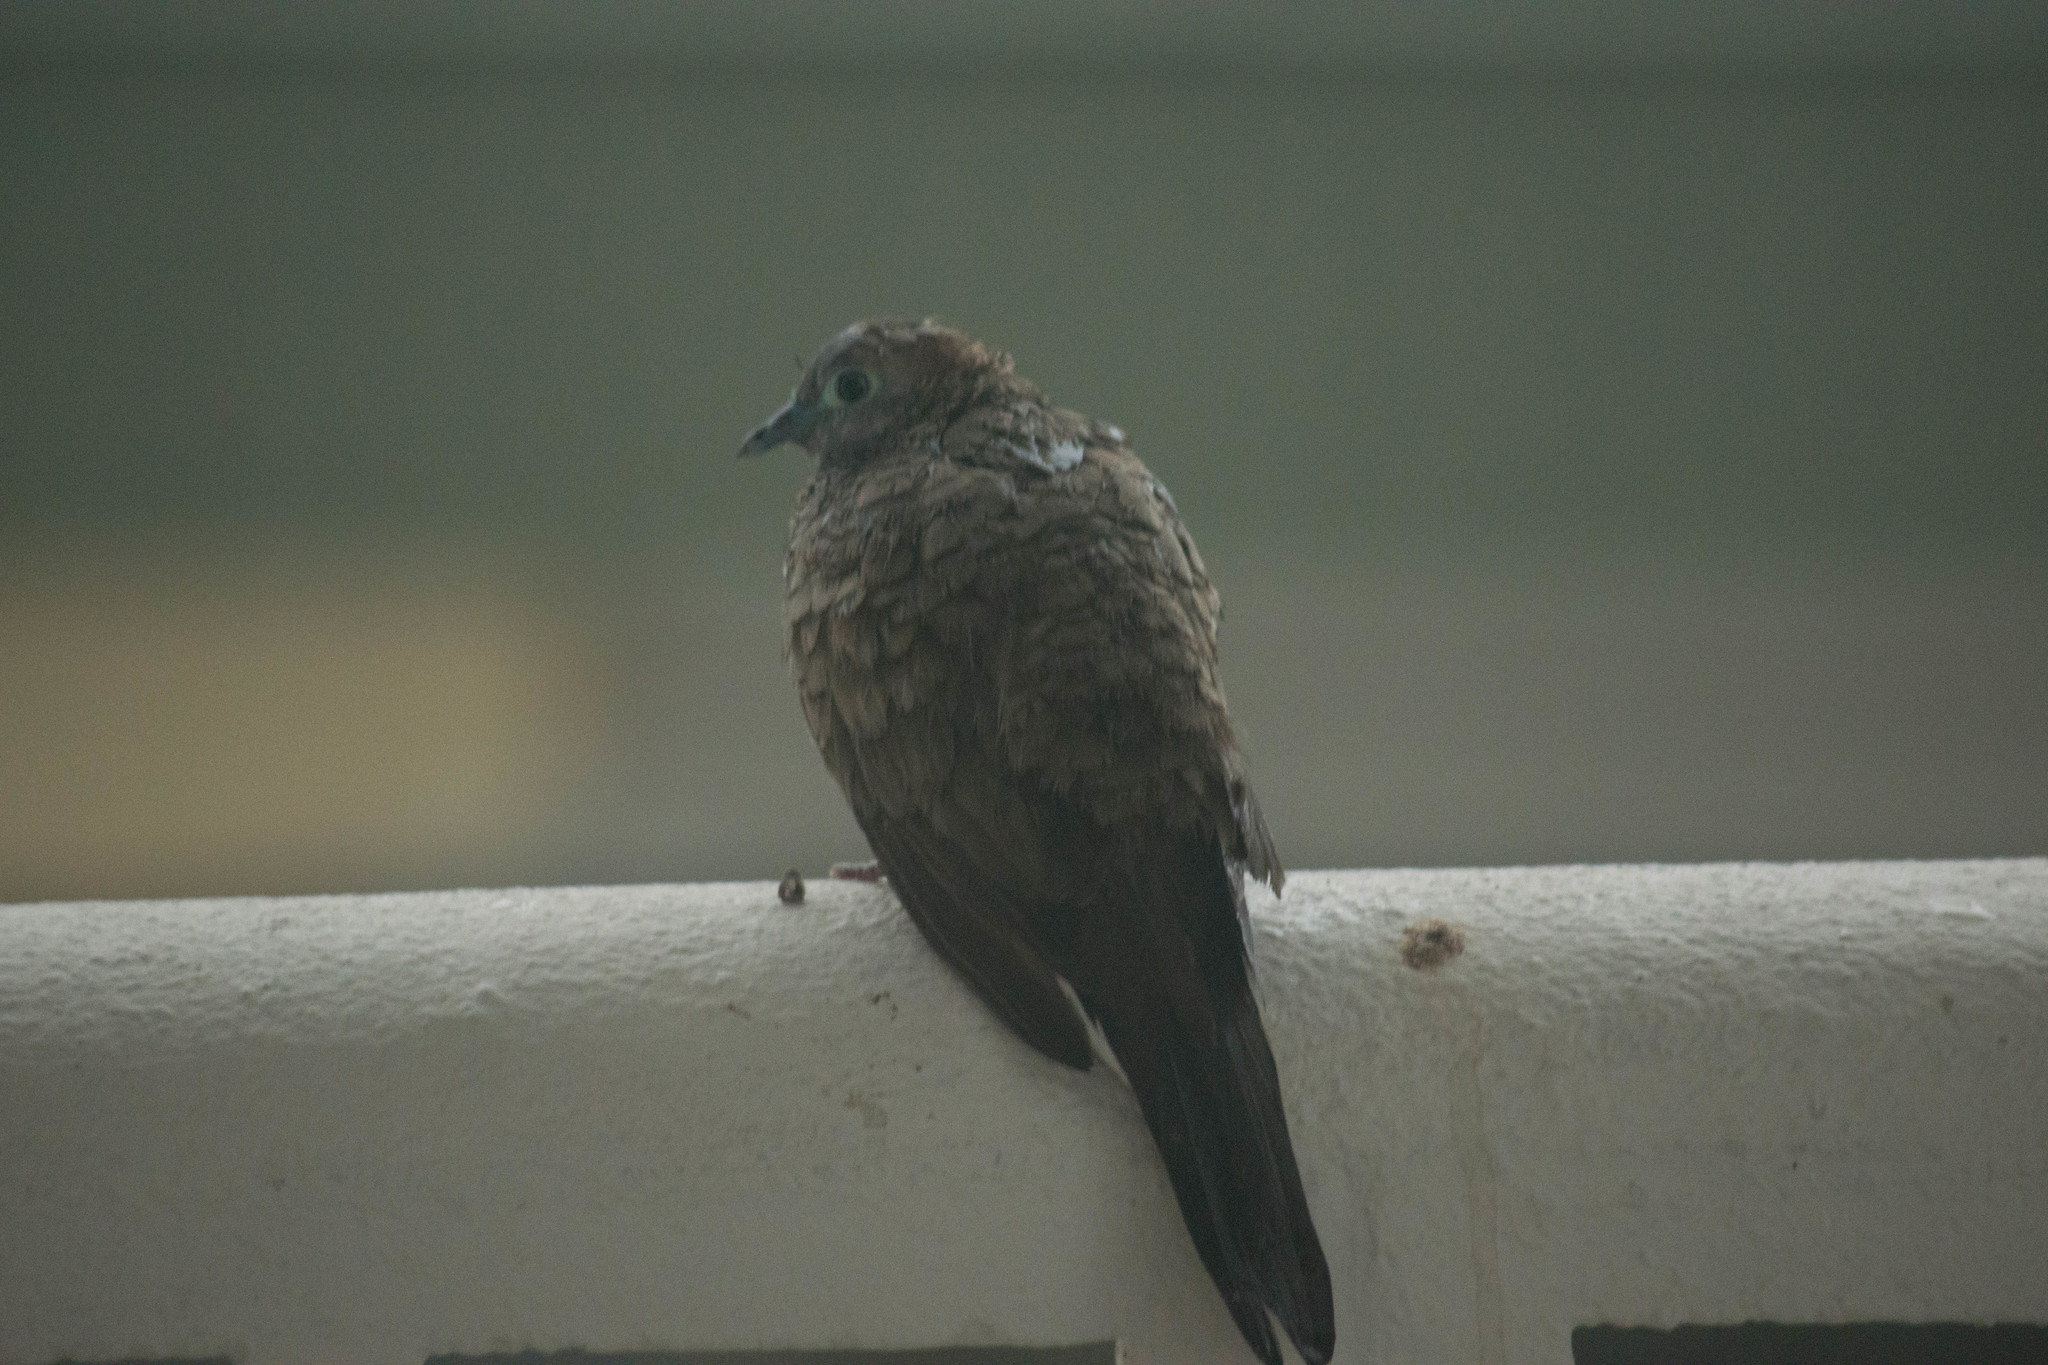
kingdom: Animalia
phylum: Chordata
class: Aves
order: Columbiformes
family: Columbidae
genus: Geopelia
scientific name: Geopelia striata
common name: Zebra dove
